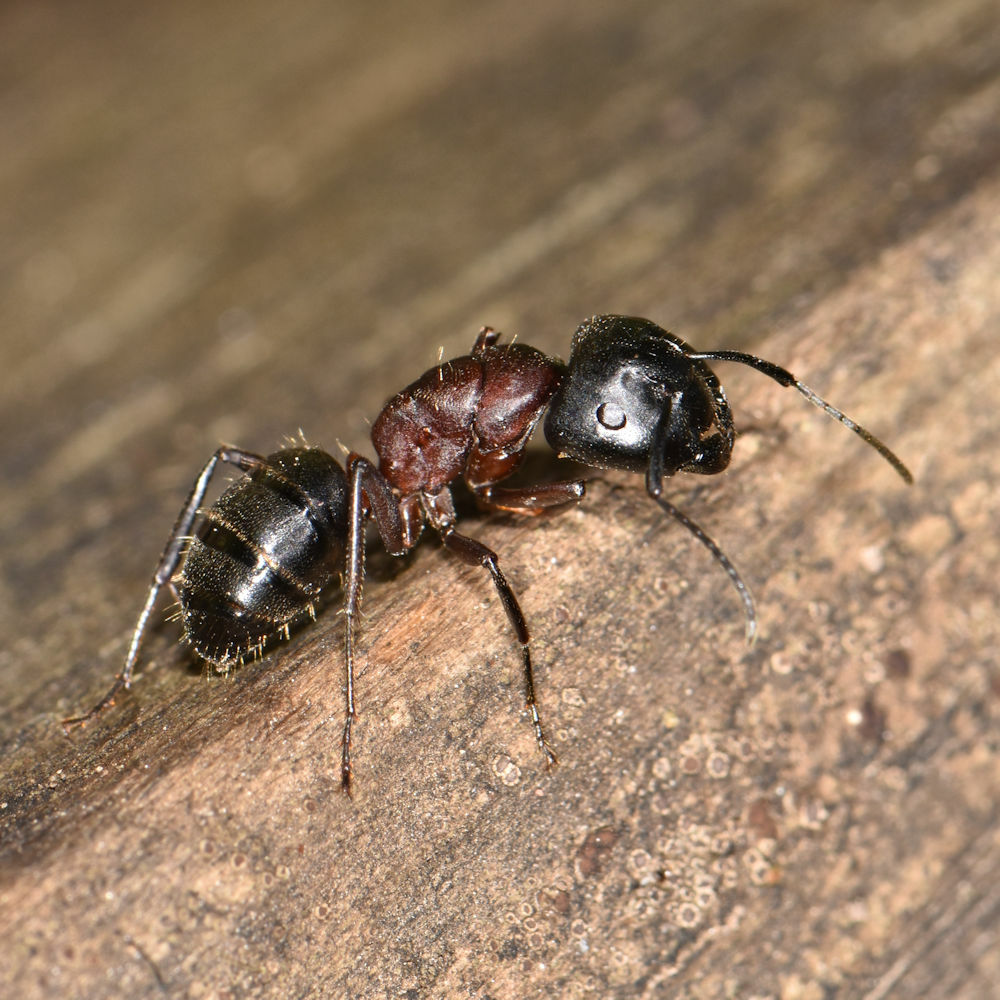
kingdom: Animalia
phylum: Arthropoda
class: Insecta
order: Hymenoptera
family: Formicidae
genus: Camponotus
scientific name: Camponotus novaeboracensis
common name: New york carpenter ant
